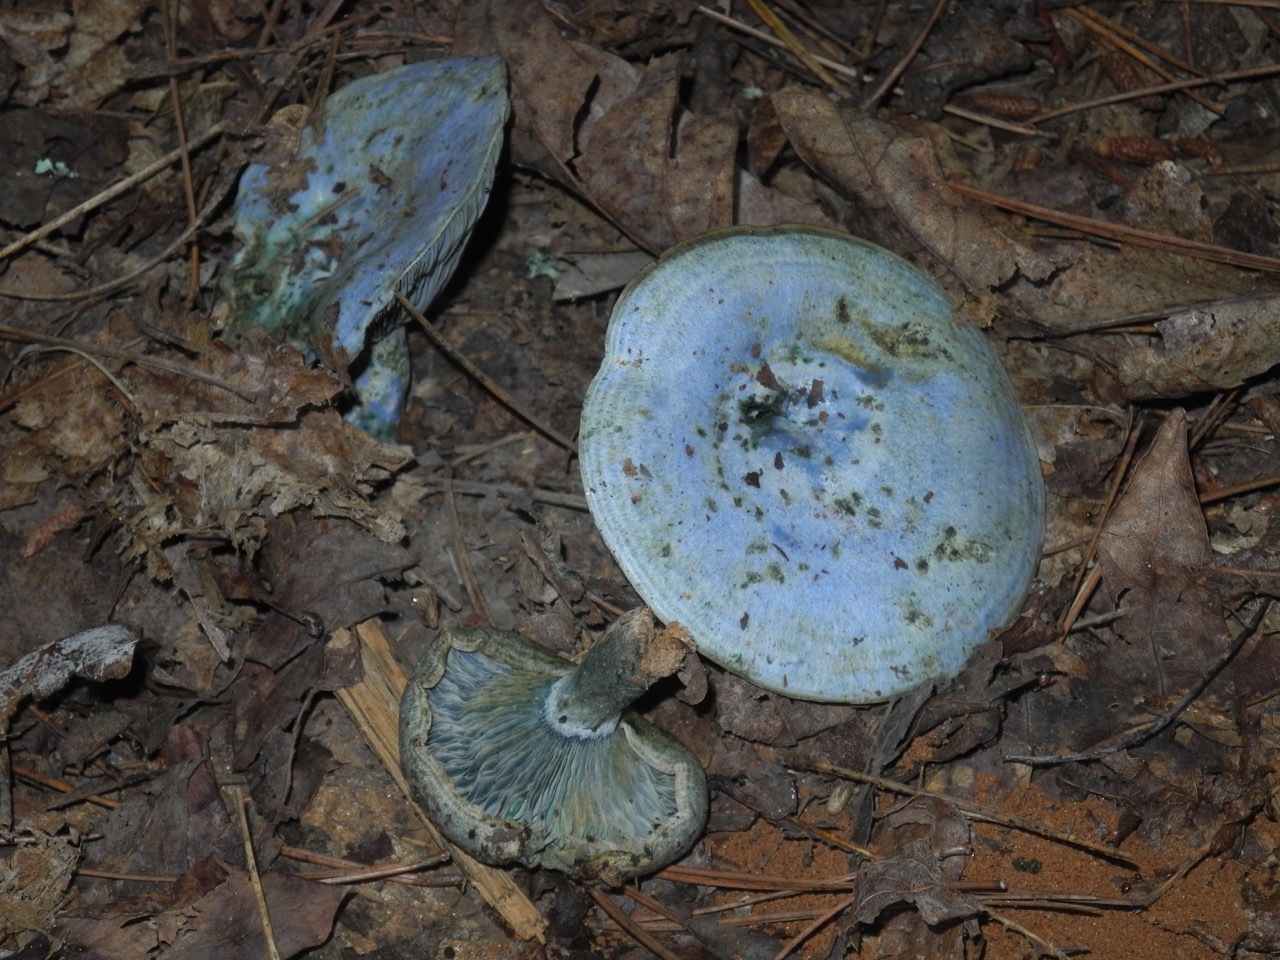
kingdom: Fungi
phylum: Basidiomycota
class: Agaricomycetes
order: Russulales
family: Russulaceae
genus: Lactarius
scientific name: Lactarius indigo
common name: Indigo milk cap
